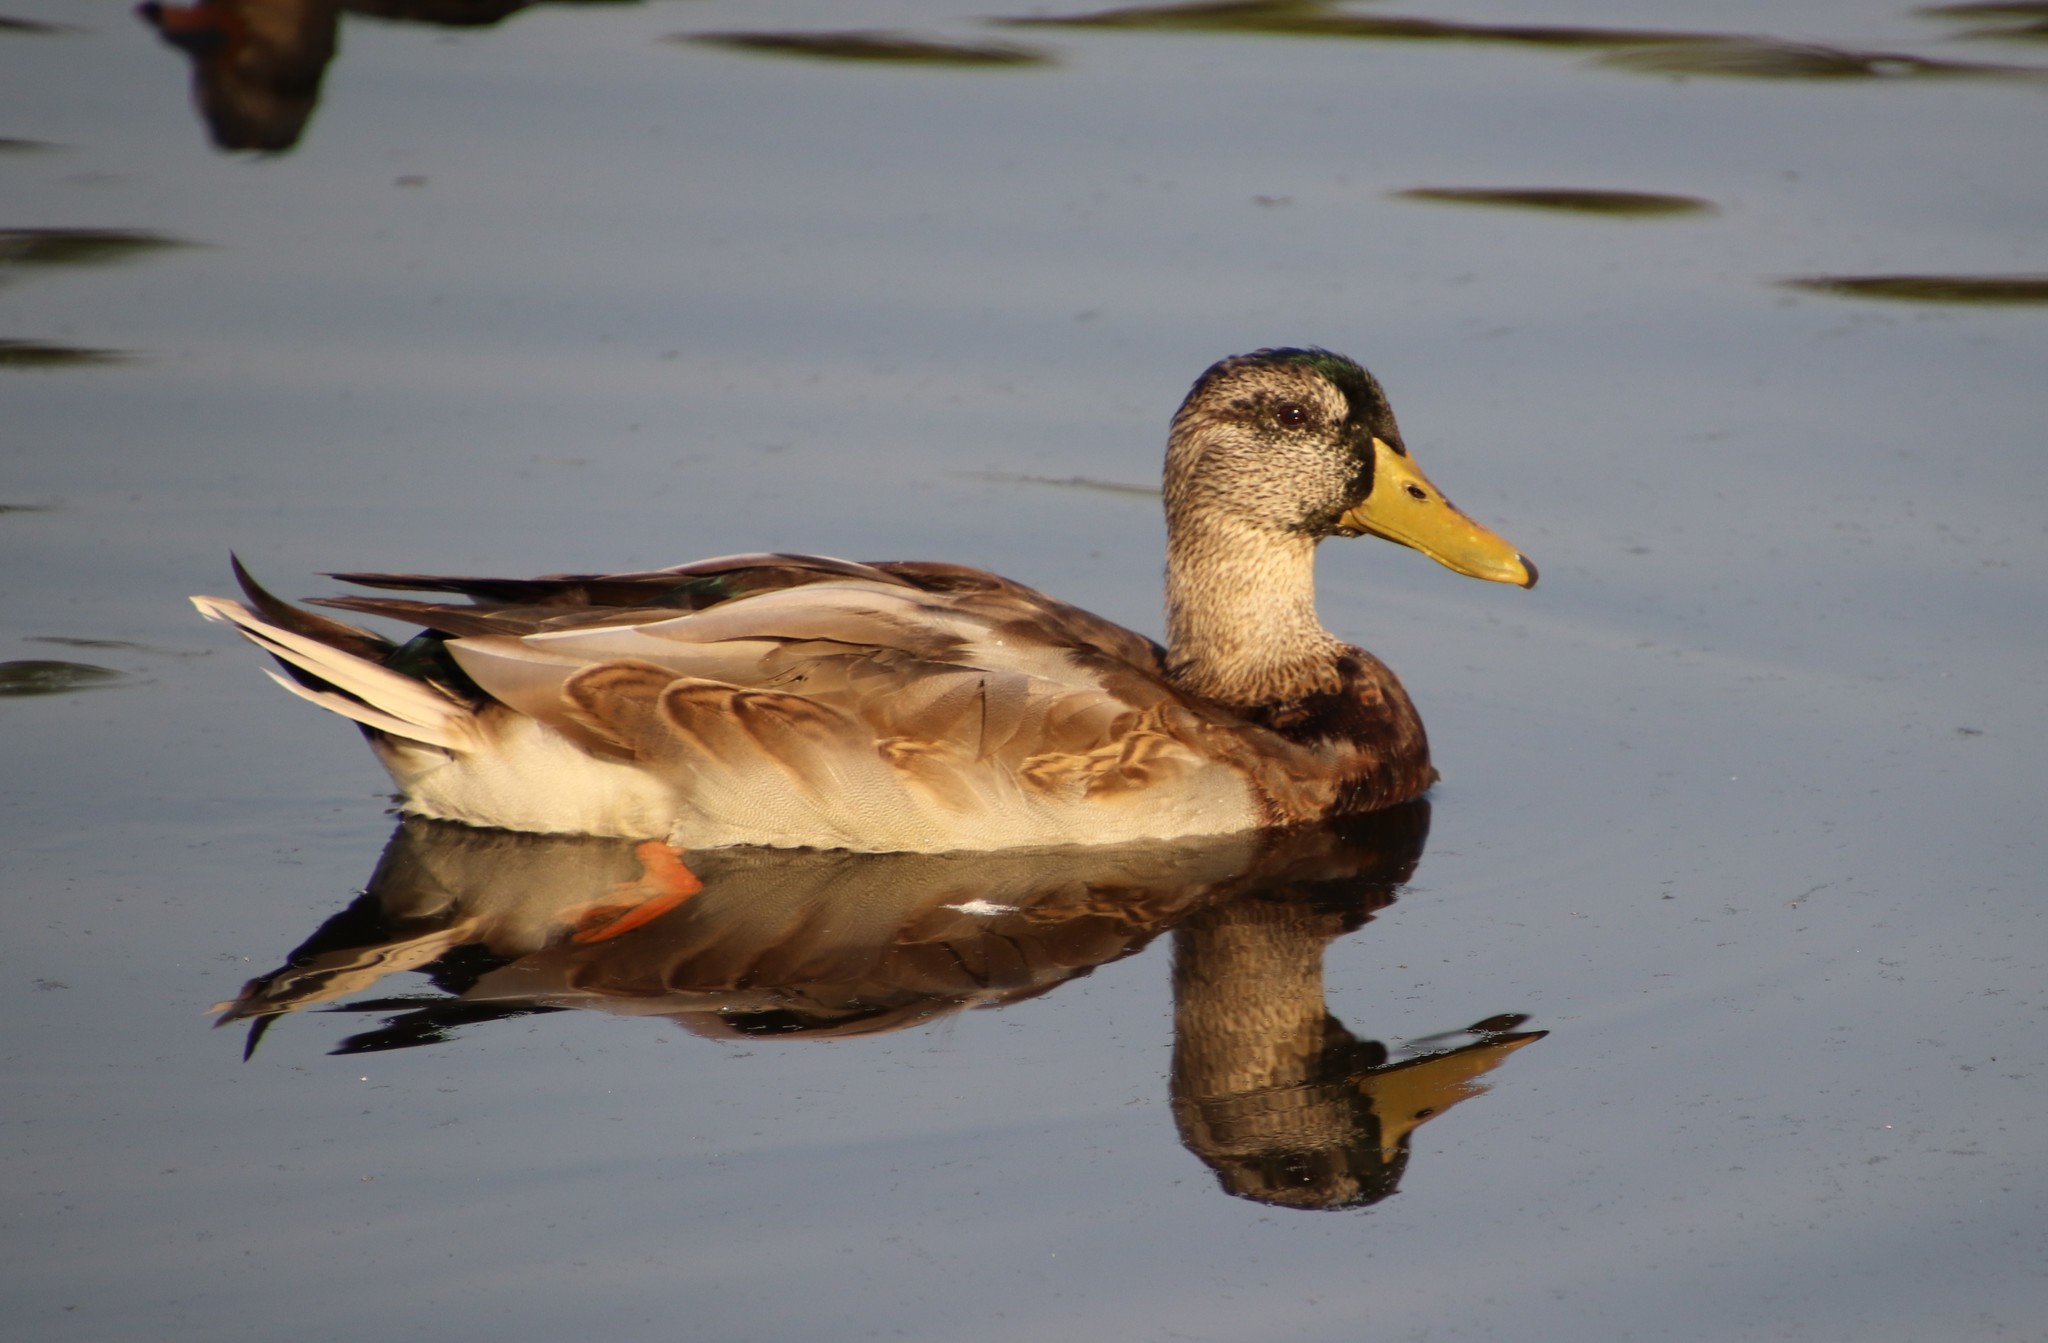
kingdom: Animalia
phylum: Chordata
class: Aves
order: Anseriformes
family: Anatidae
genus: Anas
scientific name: Anas platyrhynchos
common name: Mallard
